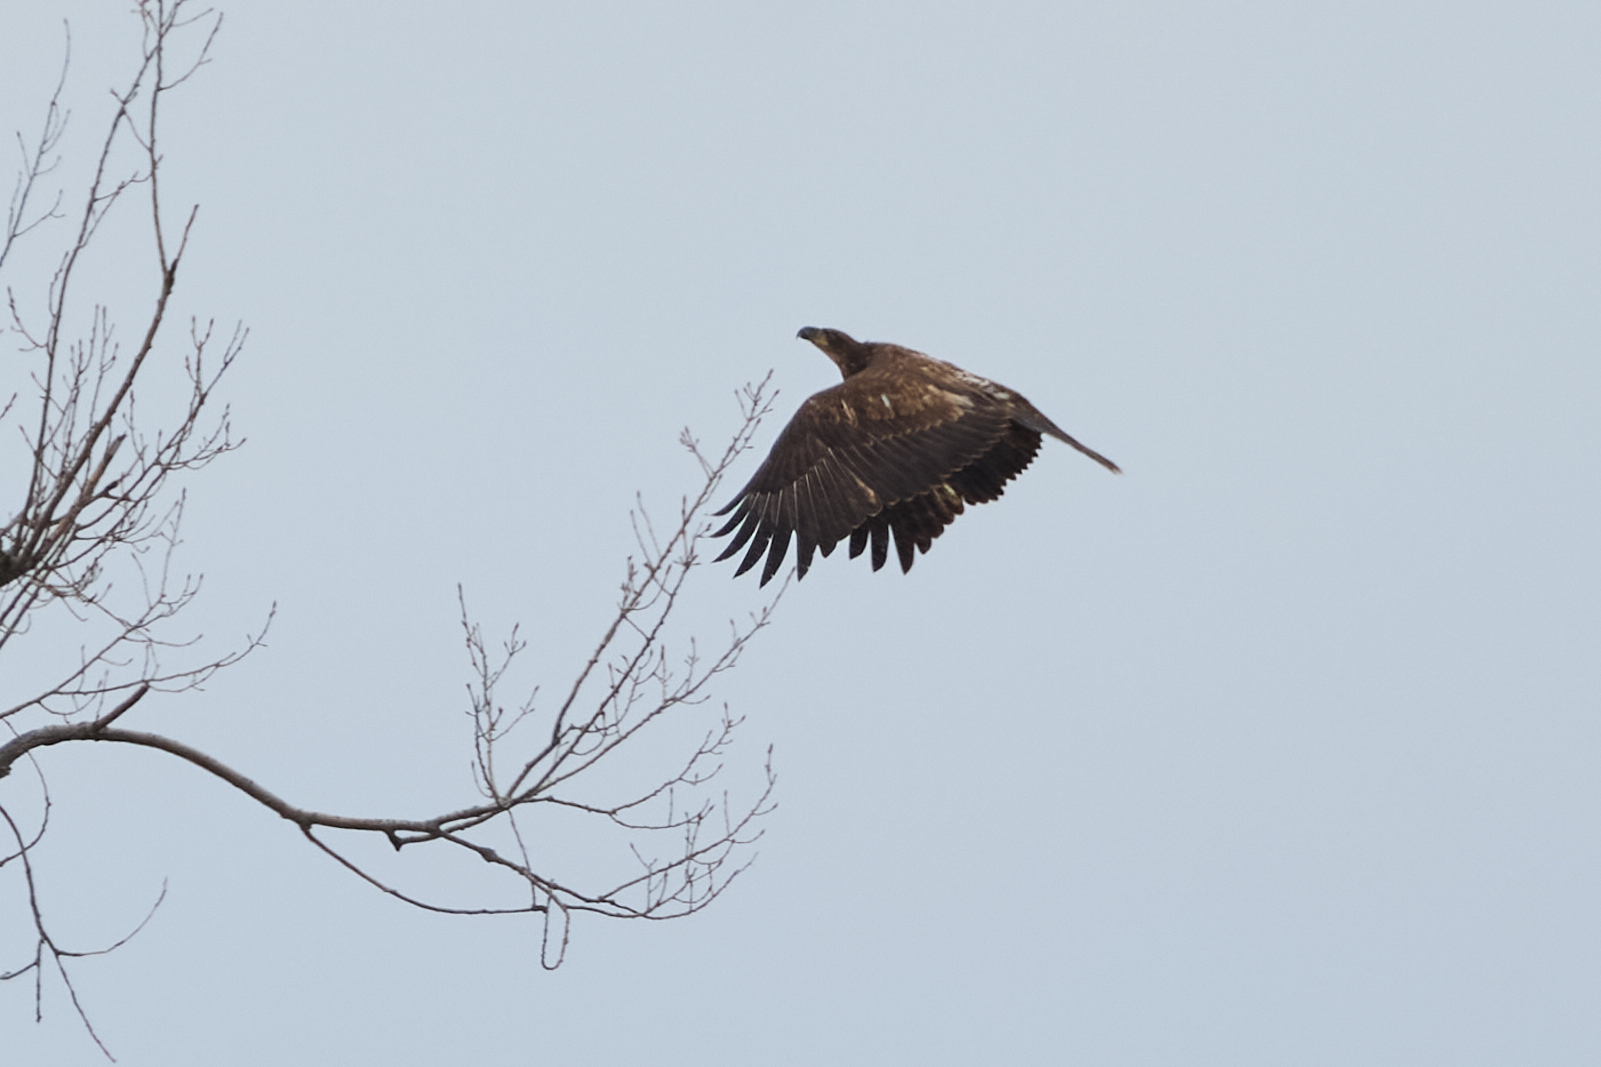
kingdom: Animalia
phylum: Chordata
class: Aves
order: Accipitriformes
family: Accipitridae
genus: Haliaeetus
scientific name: Haliaeetus leucocephalus
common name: Bald eagle
